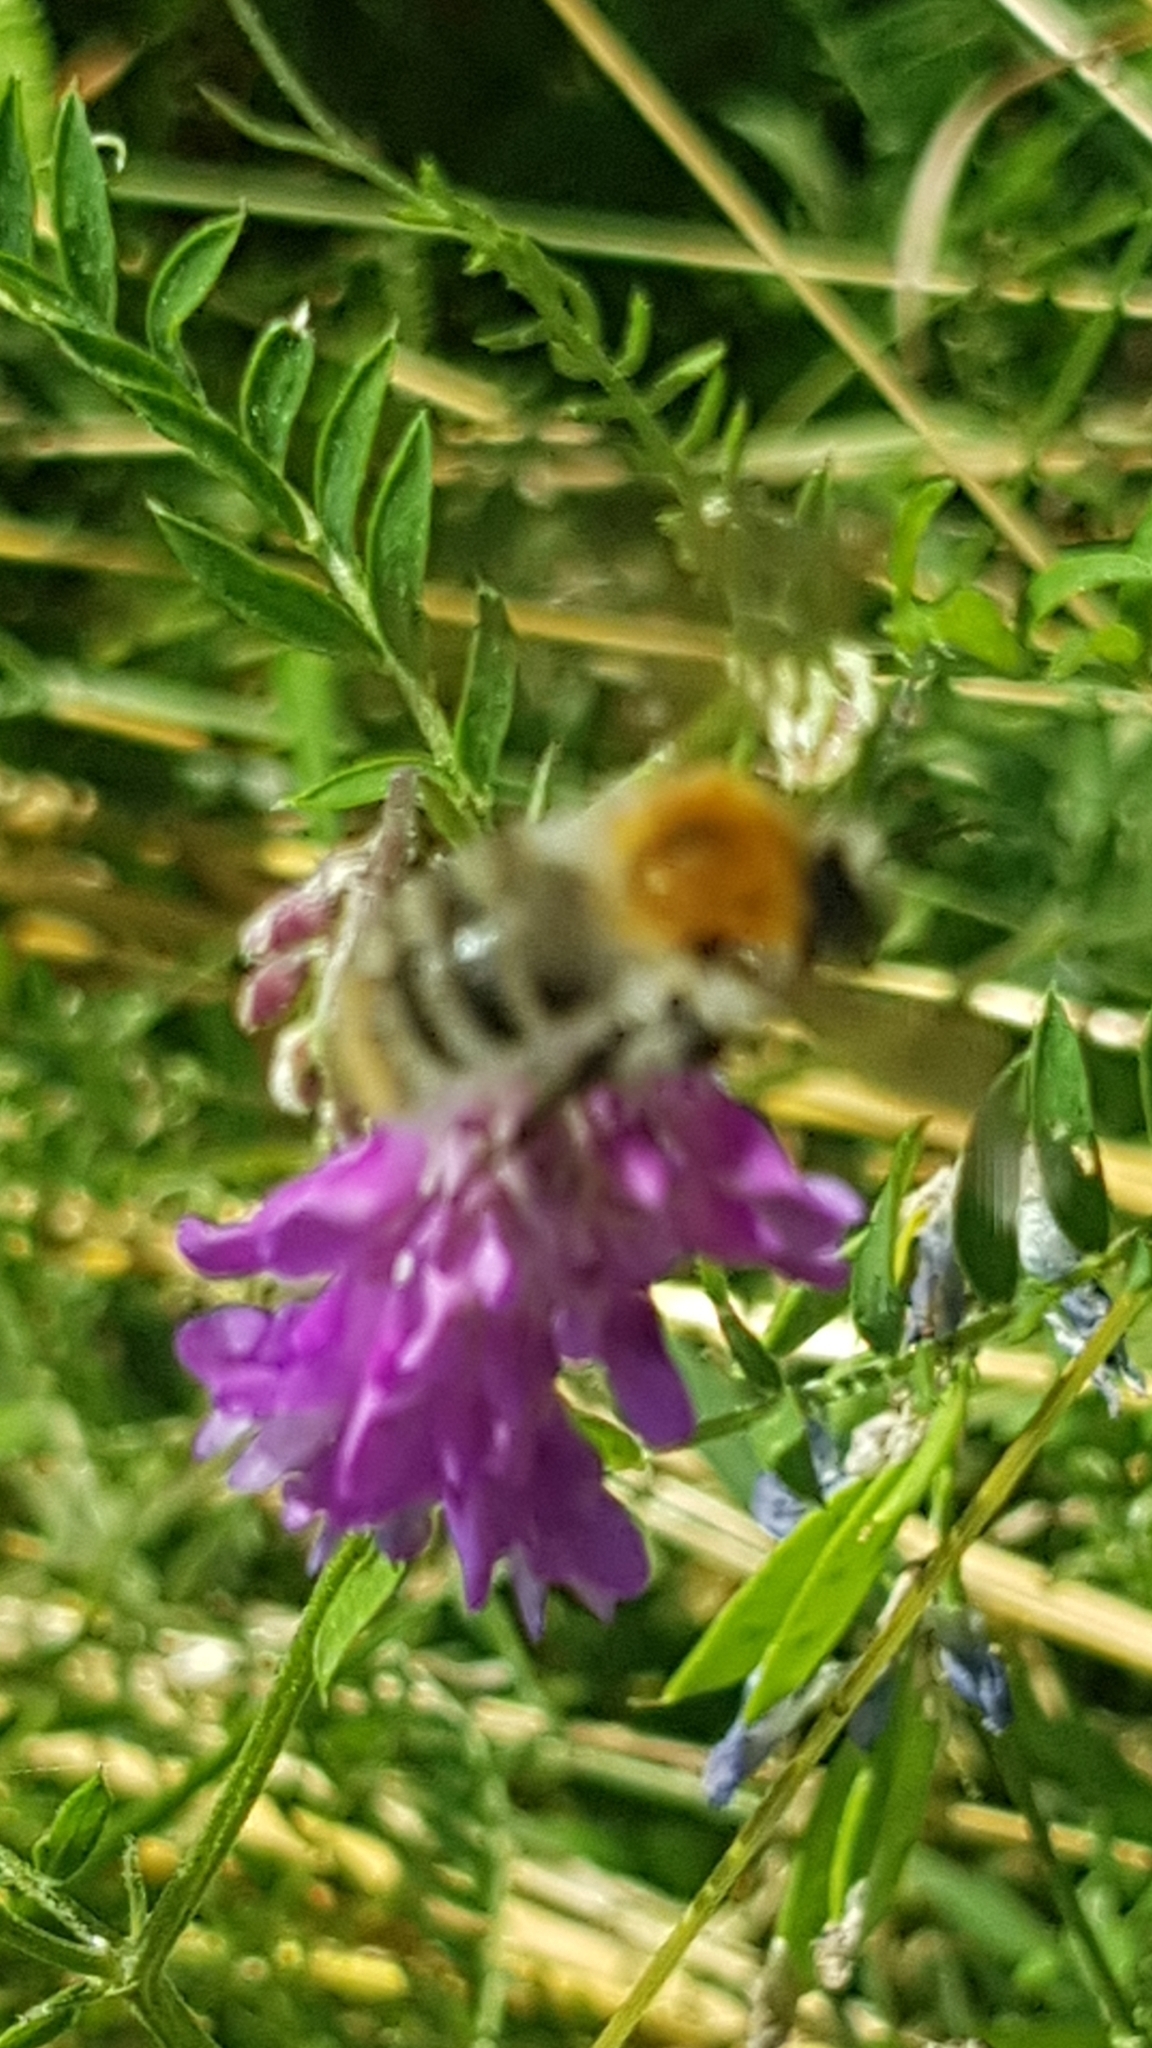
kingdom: Animalia
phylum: Arthropoda
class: Insecta
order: Hymenoptera
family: Apidae
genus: Bombus
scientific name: Bombus pascuorum
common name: Common carder bee
